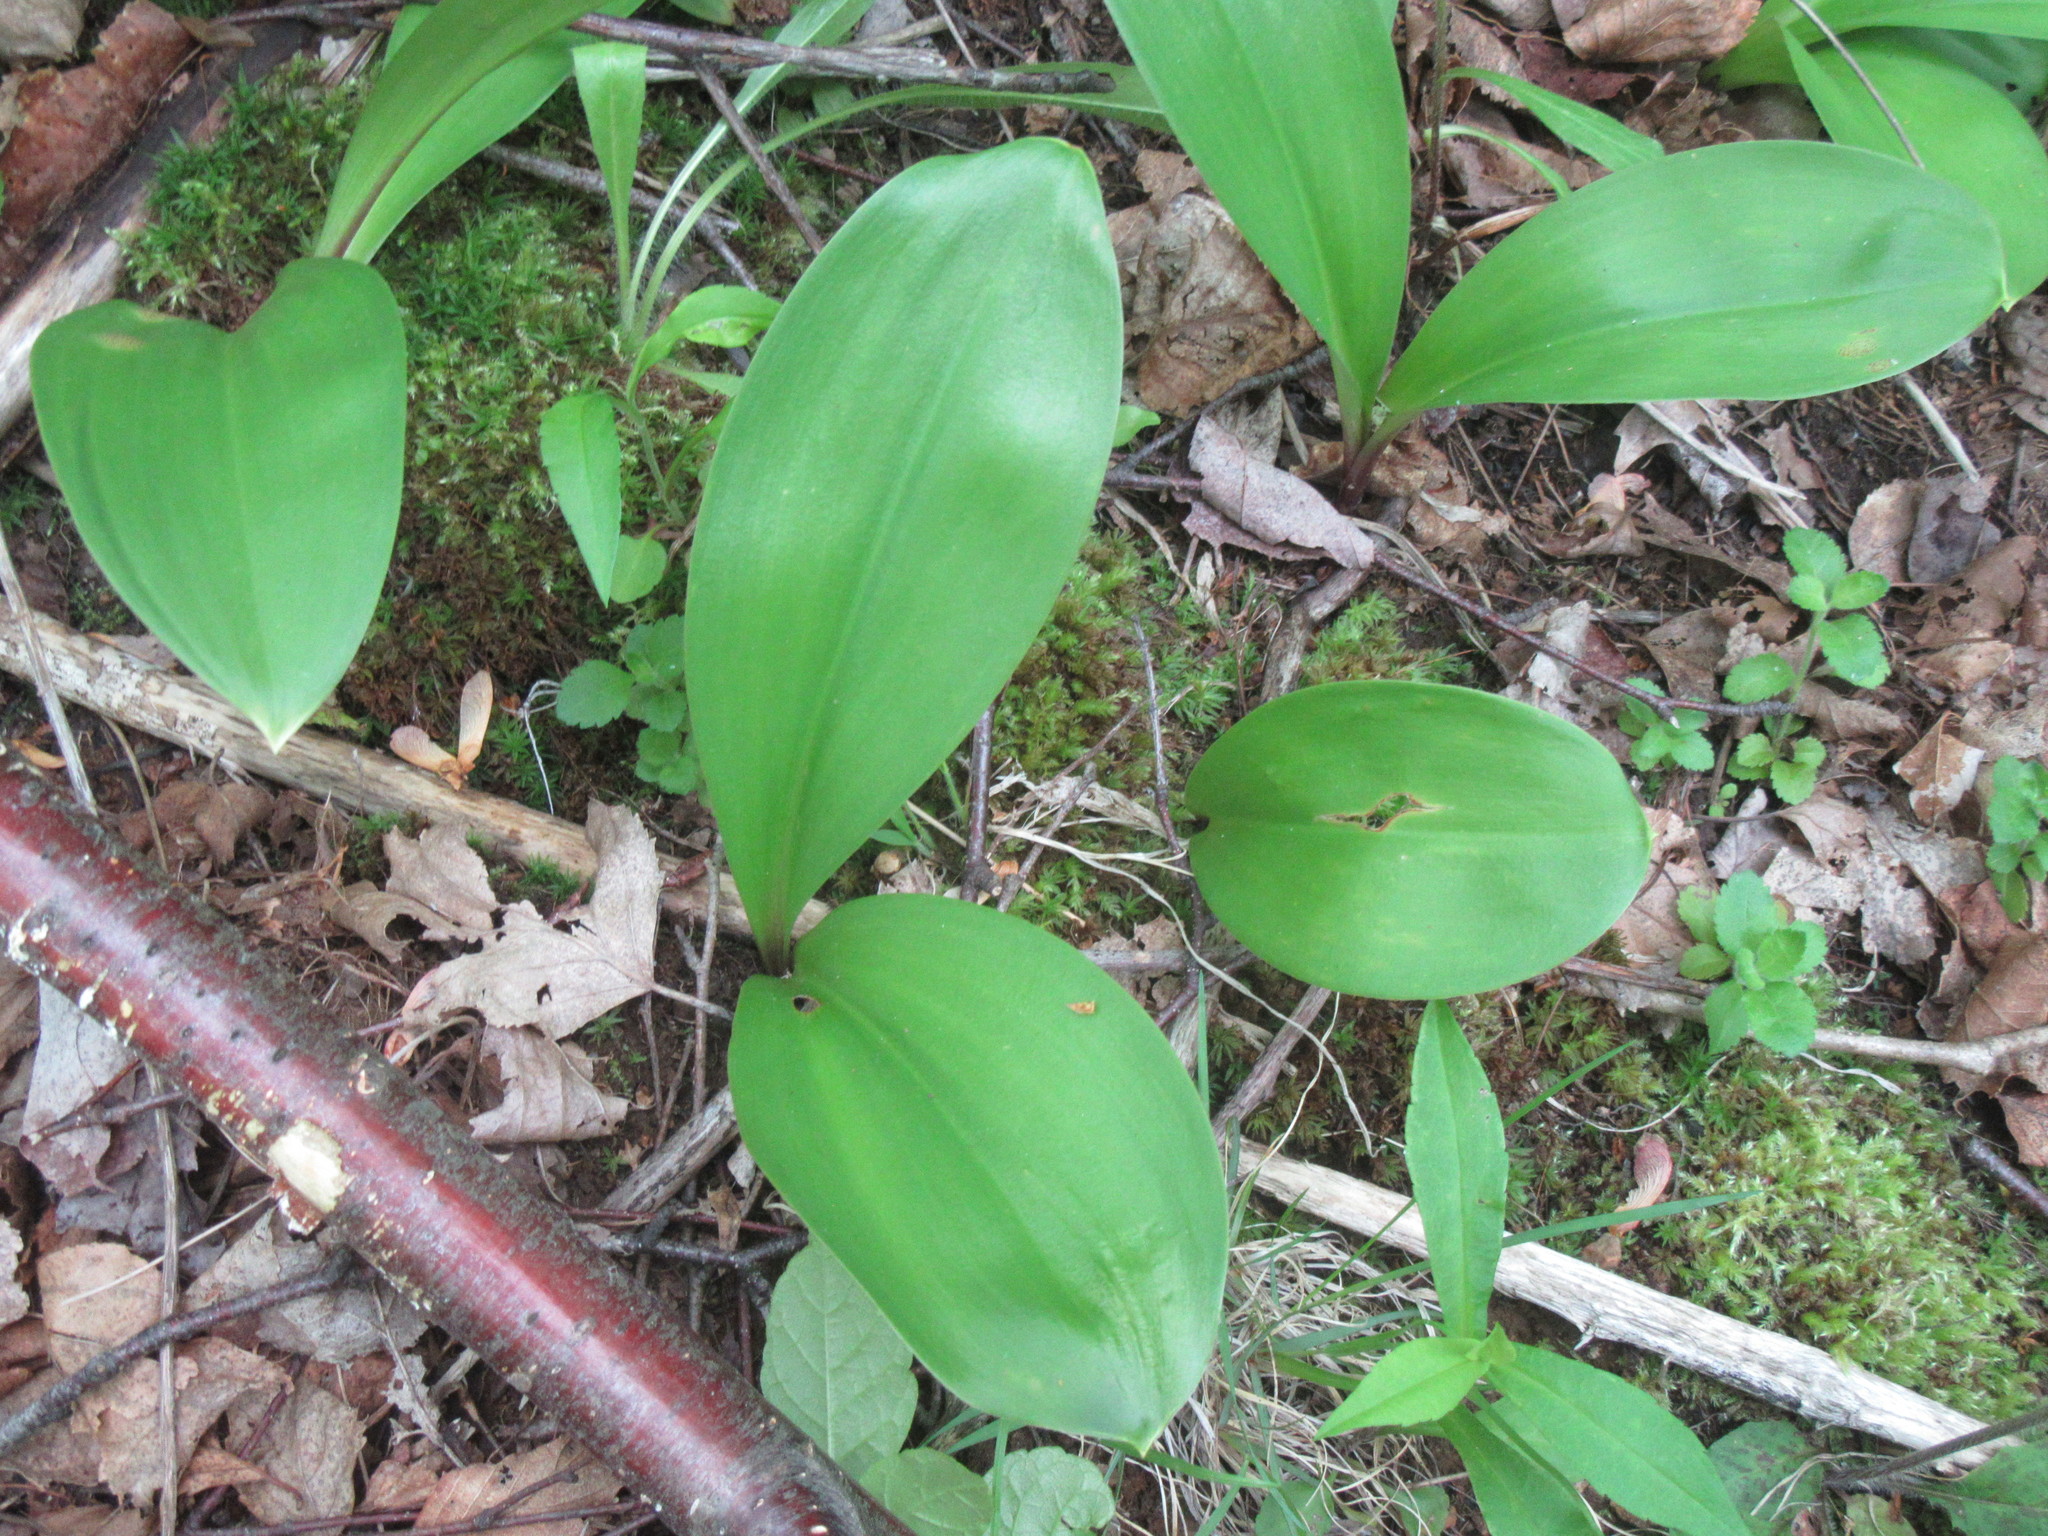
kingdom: Plantae
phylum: Tracheophyta
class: Liliopsida
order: Liliales
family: Liliaceae
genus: Clintonia
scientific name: Clintonia borealis
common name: Yellow clintonia
